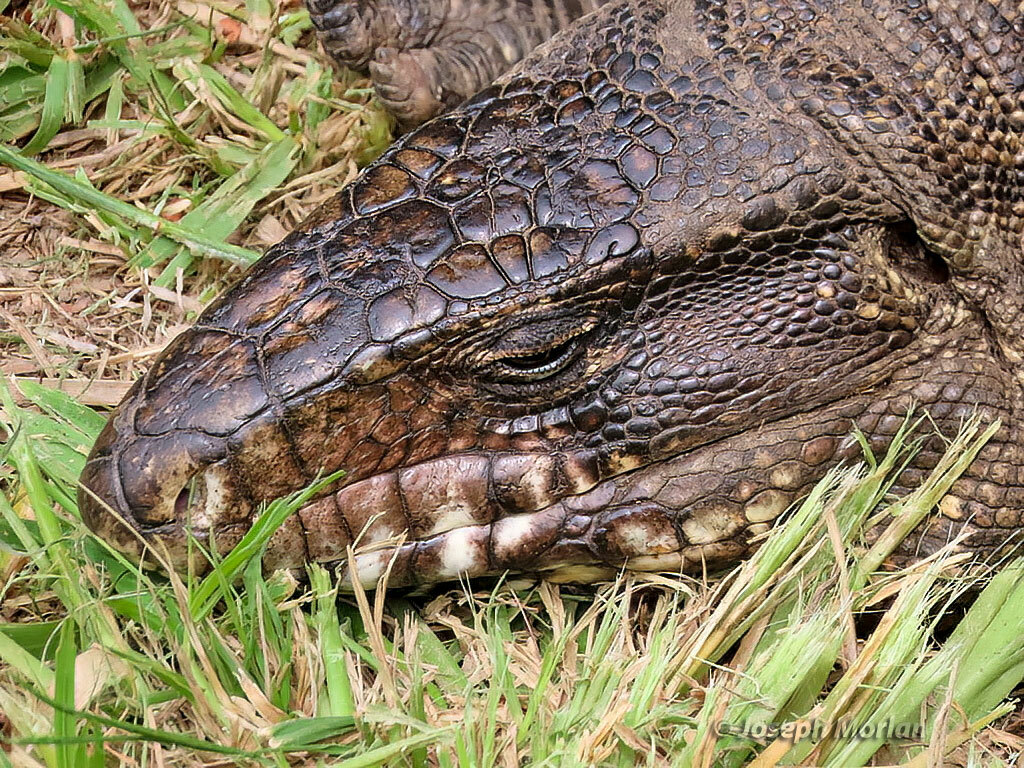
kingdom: Animalia
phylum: Chordata
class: Squamata
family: Teiidae
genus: Salvator
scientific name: Salvator merianae
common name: Argentine black and white tegu
